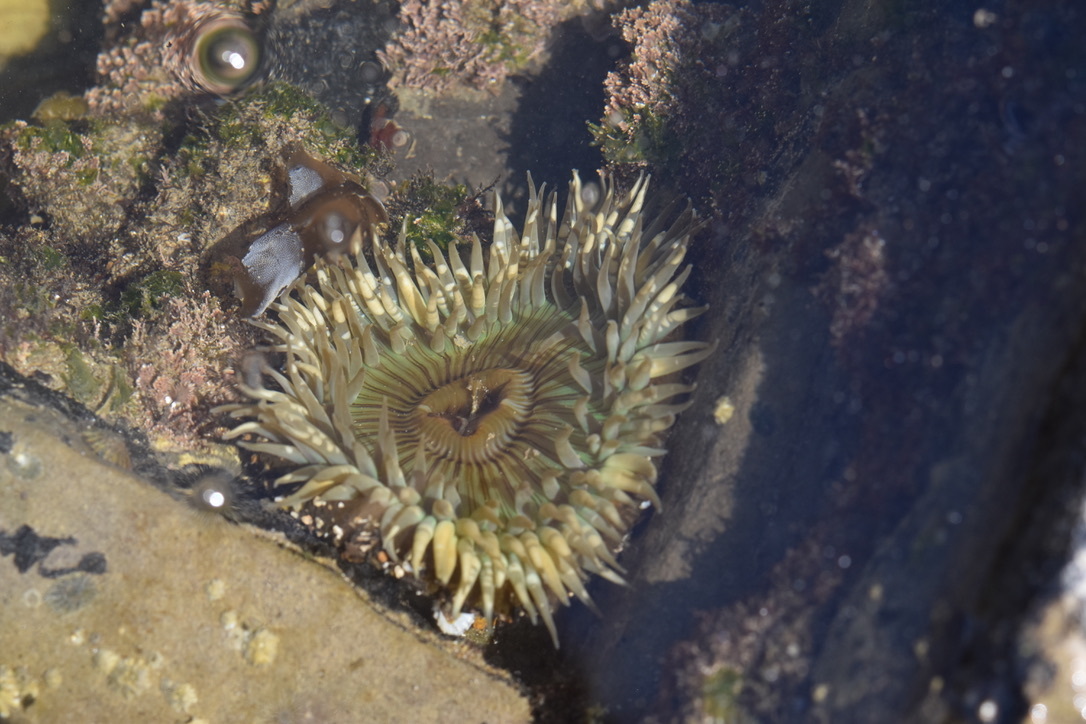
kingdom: Animalia
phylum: Cnidaria
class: Anthozoa
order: Actiniaria
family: Actiniidae
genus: Anthopleura
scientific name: Anthopleura sola
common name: Sun anemone
